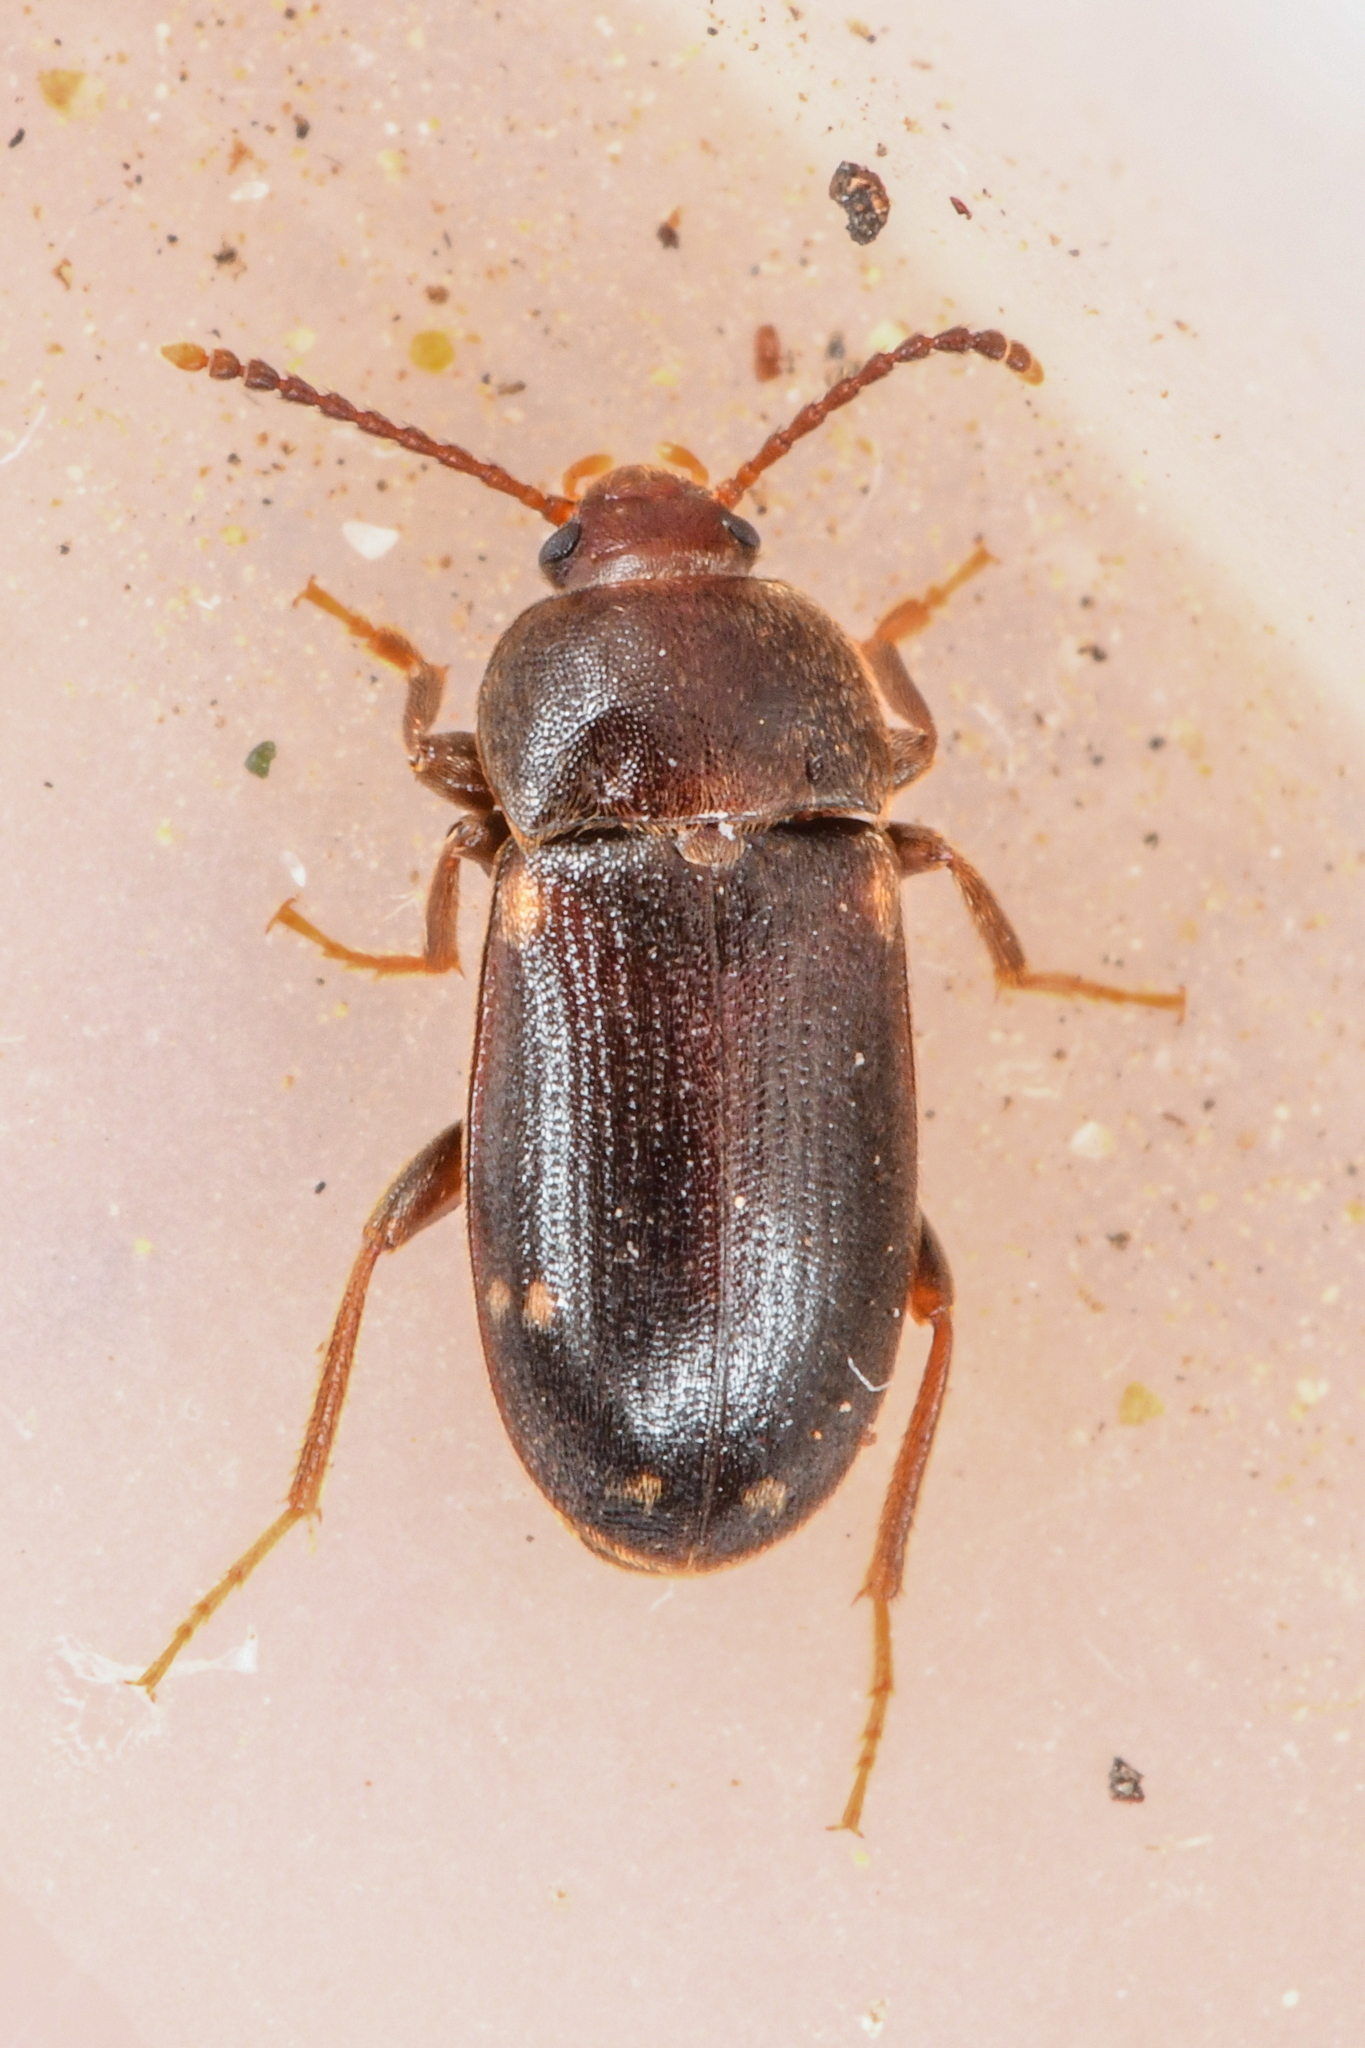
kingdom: Animalia
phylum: Arthropoda
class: Insecta
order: Coleoptera
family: Mycetophagidae
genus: Mycetophagus
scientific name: Mycetophagus pluriguttatus
